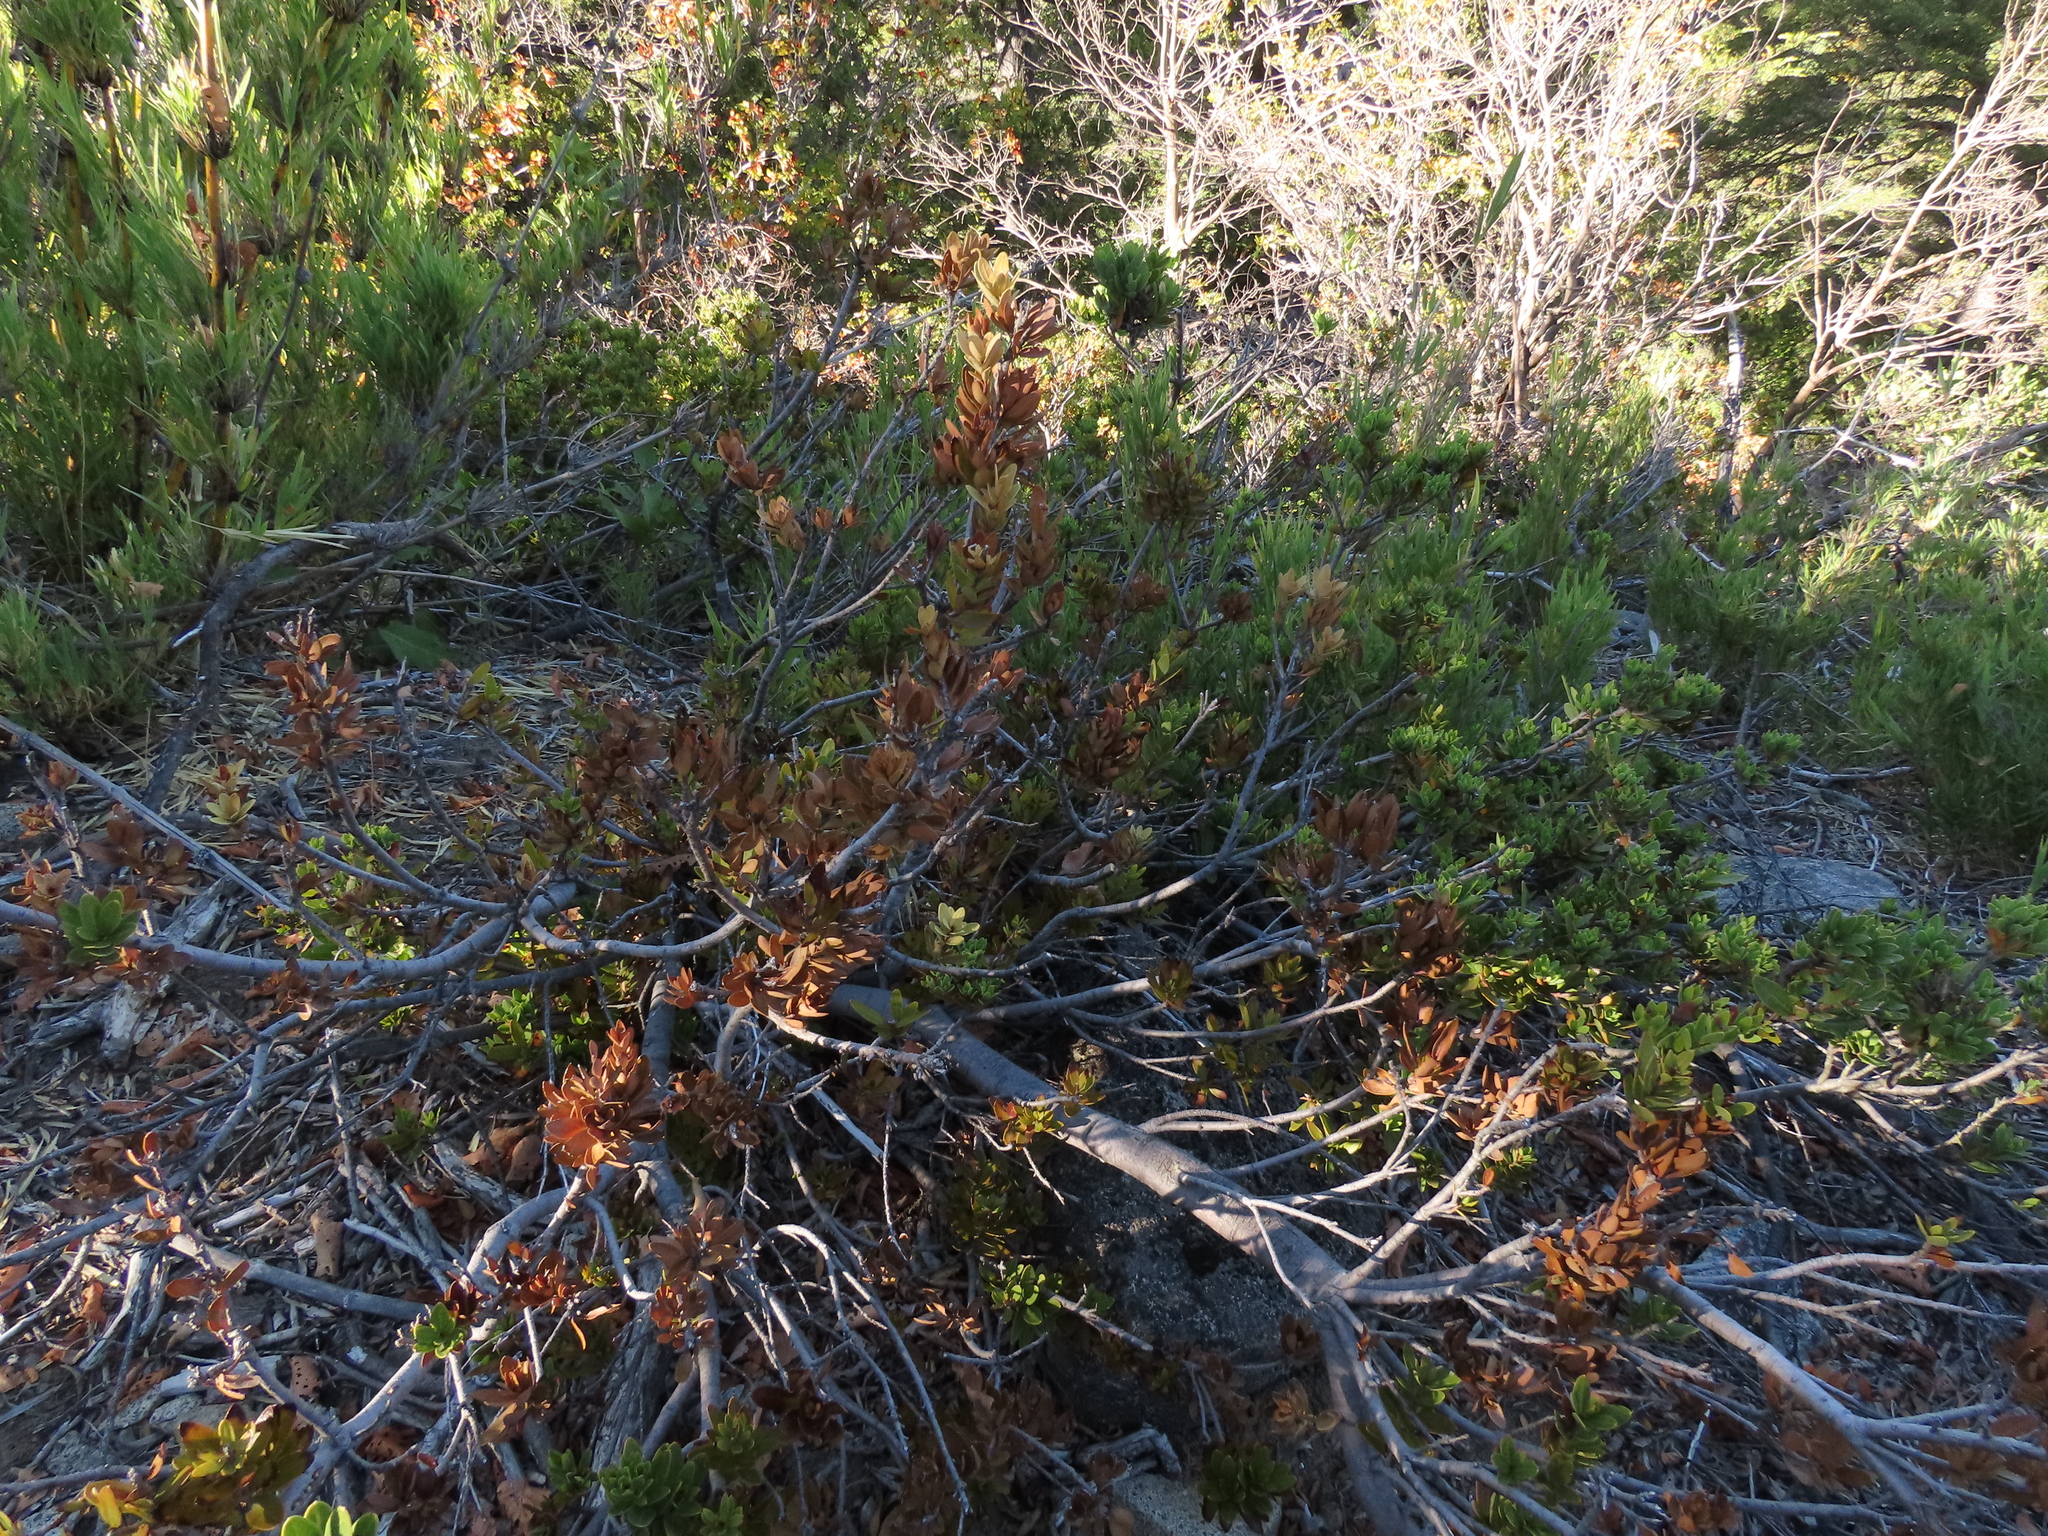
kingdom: Plantae
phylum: Tracheophyta
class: Magnoliopsida
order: Proteales
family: Proteaceae
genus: Orites
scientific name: Orites myrtoideus
